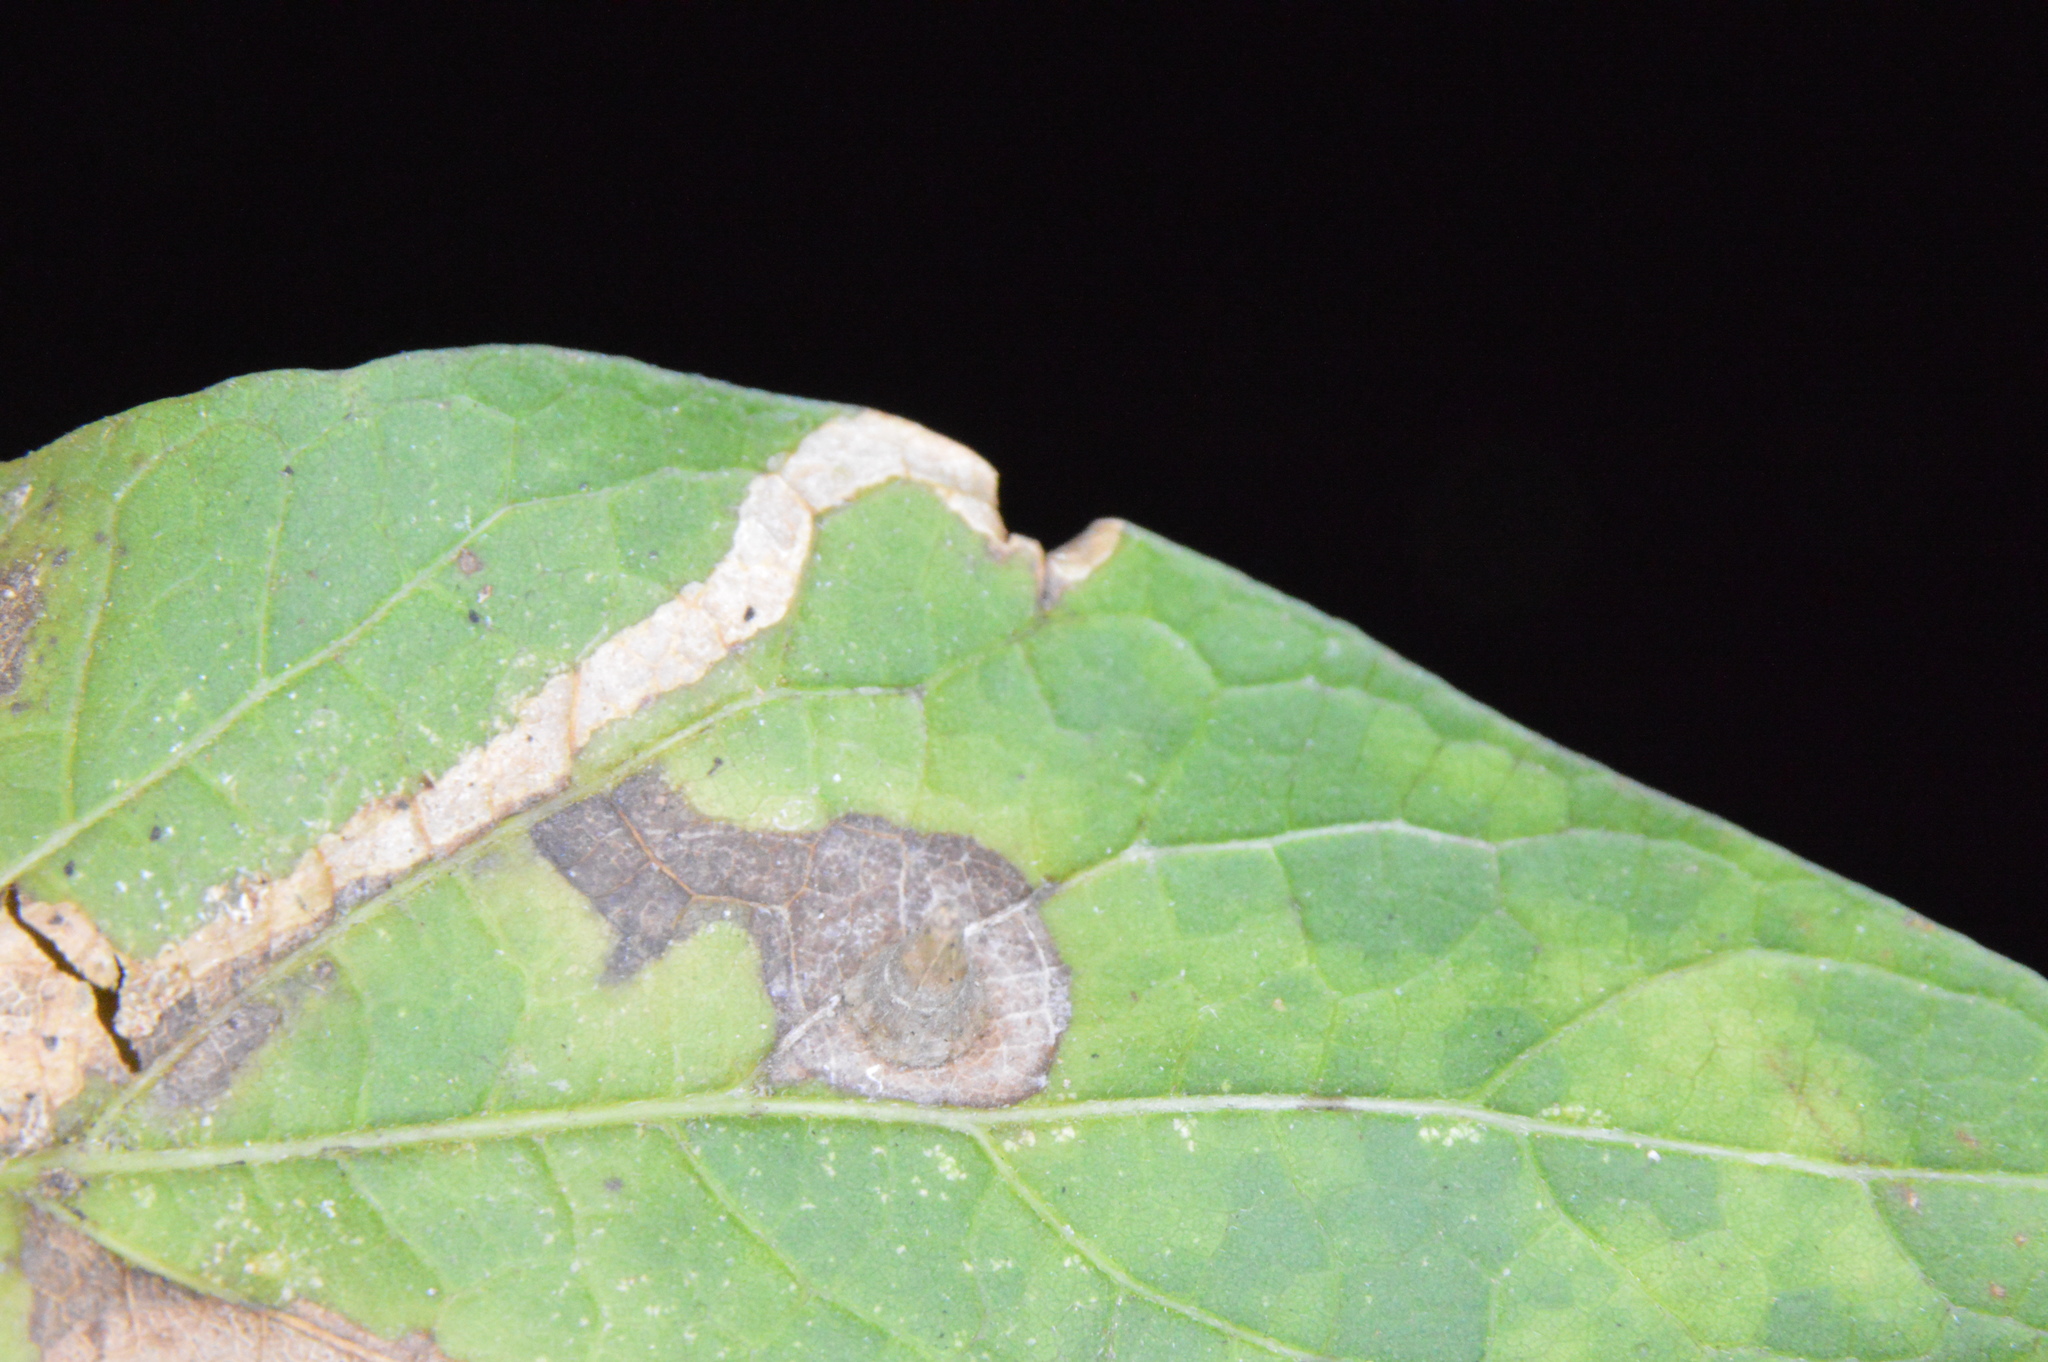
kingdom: Animalia
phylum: Arthropoda
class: Insecta
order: Diptera
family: Cecidomyiidae
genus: Celticecis
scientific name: Celticecis subulata
